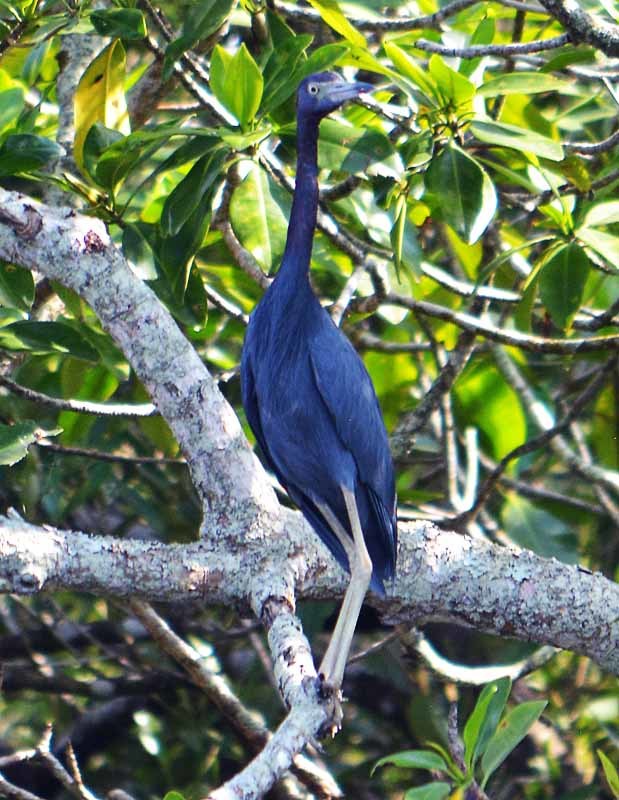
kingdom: Animalia
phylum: Chordata
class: Aves
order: Pelecaniformes
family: Ardeidae
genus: Egretta
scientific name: Egretta caerulea
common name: Little blue heron
